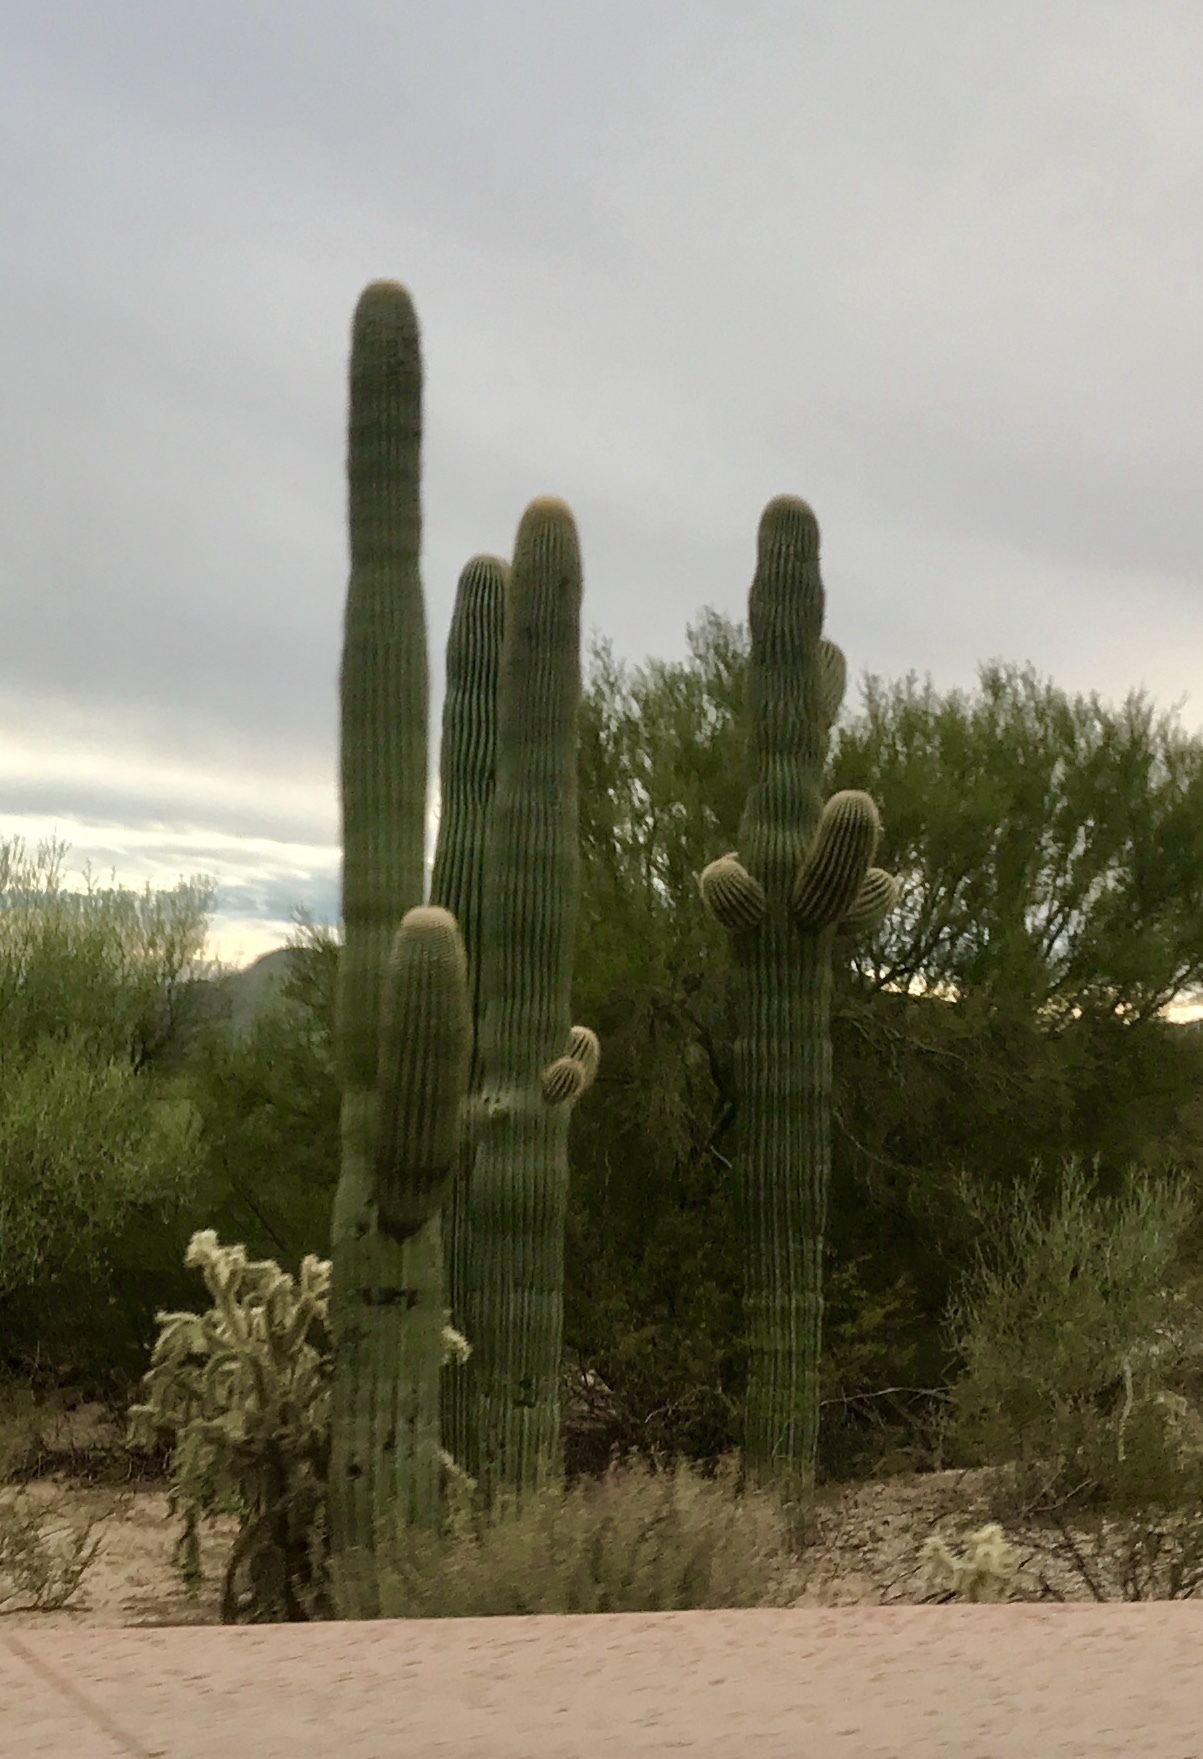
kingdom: Plantae
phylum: Tracheophyta
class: Magnoliopsida
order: Caryophyllales
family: Cactaceae
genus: Carnegiea
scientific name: Carnegiea gigantea
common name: Saguaro
